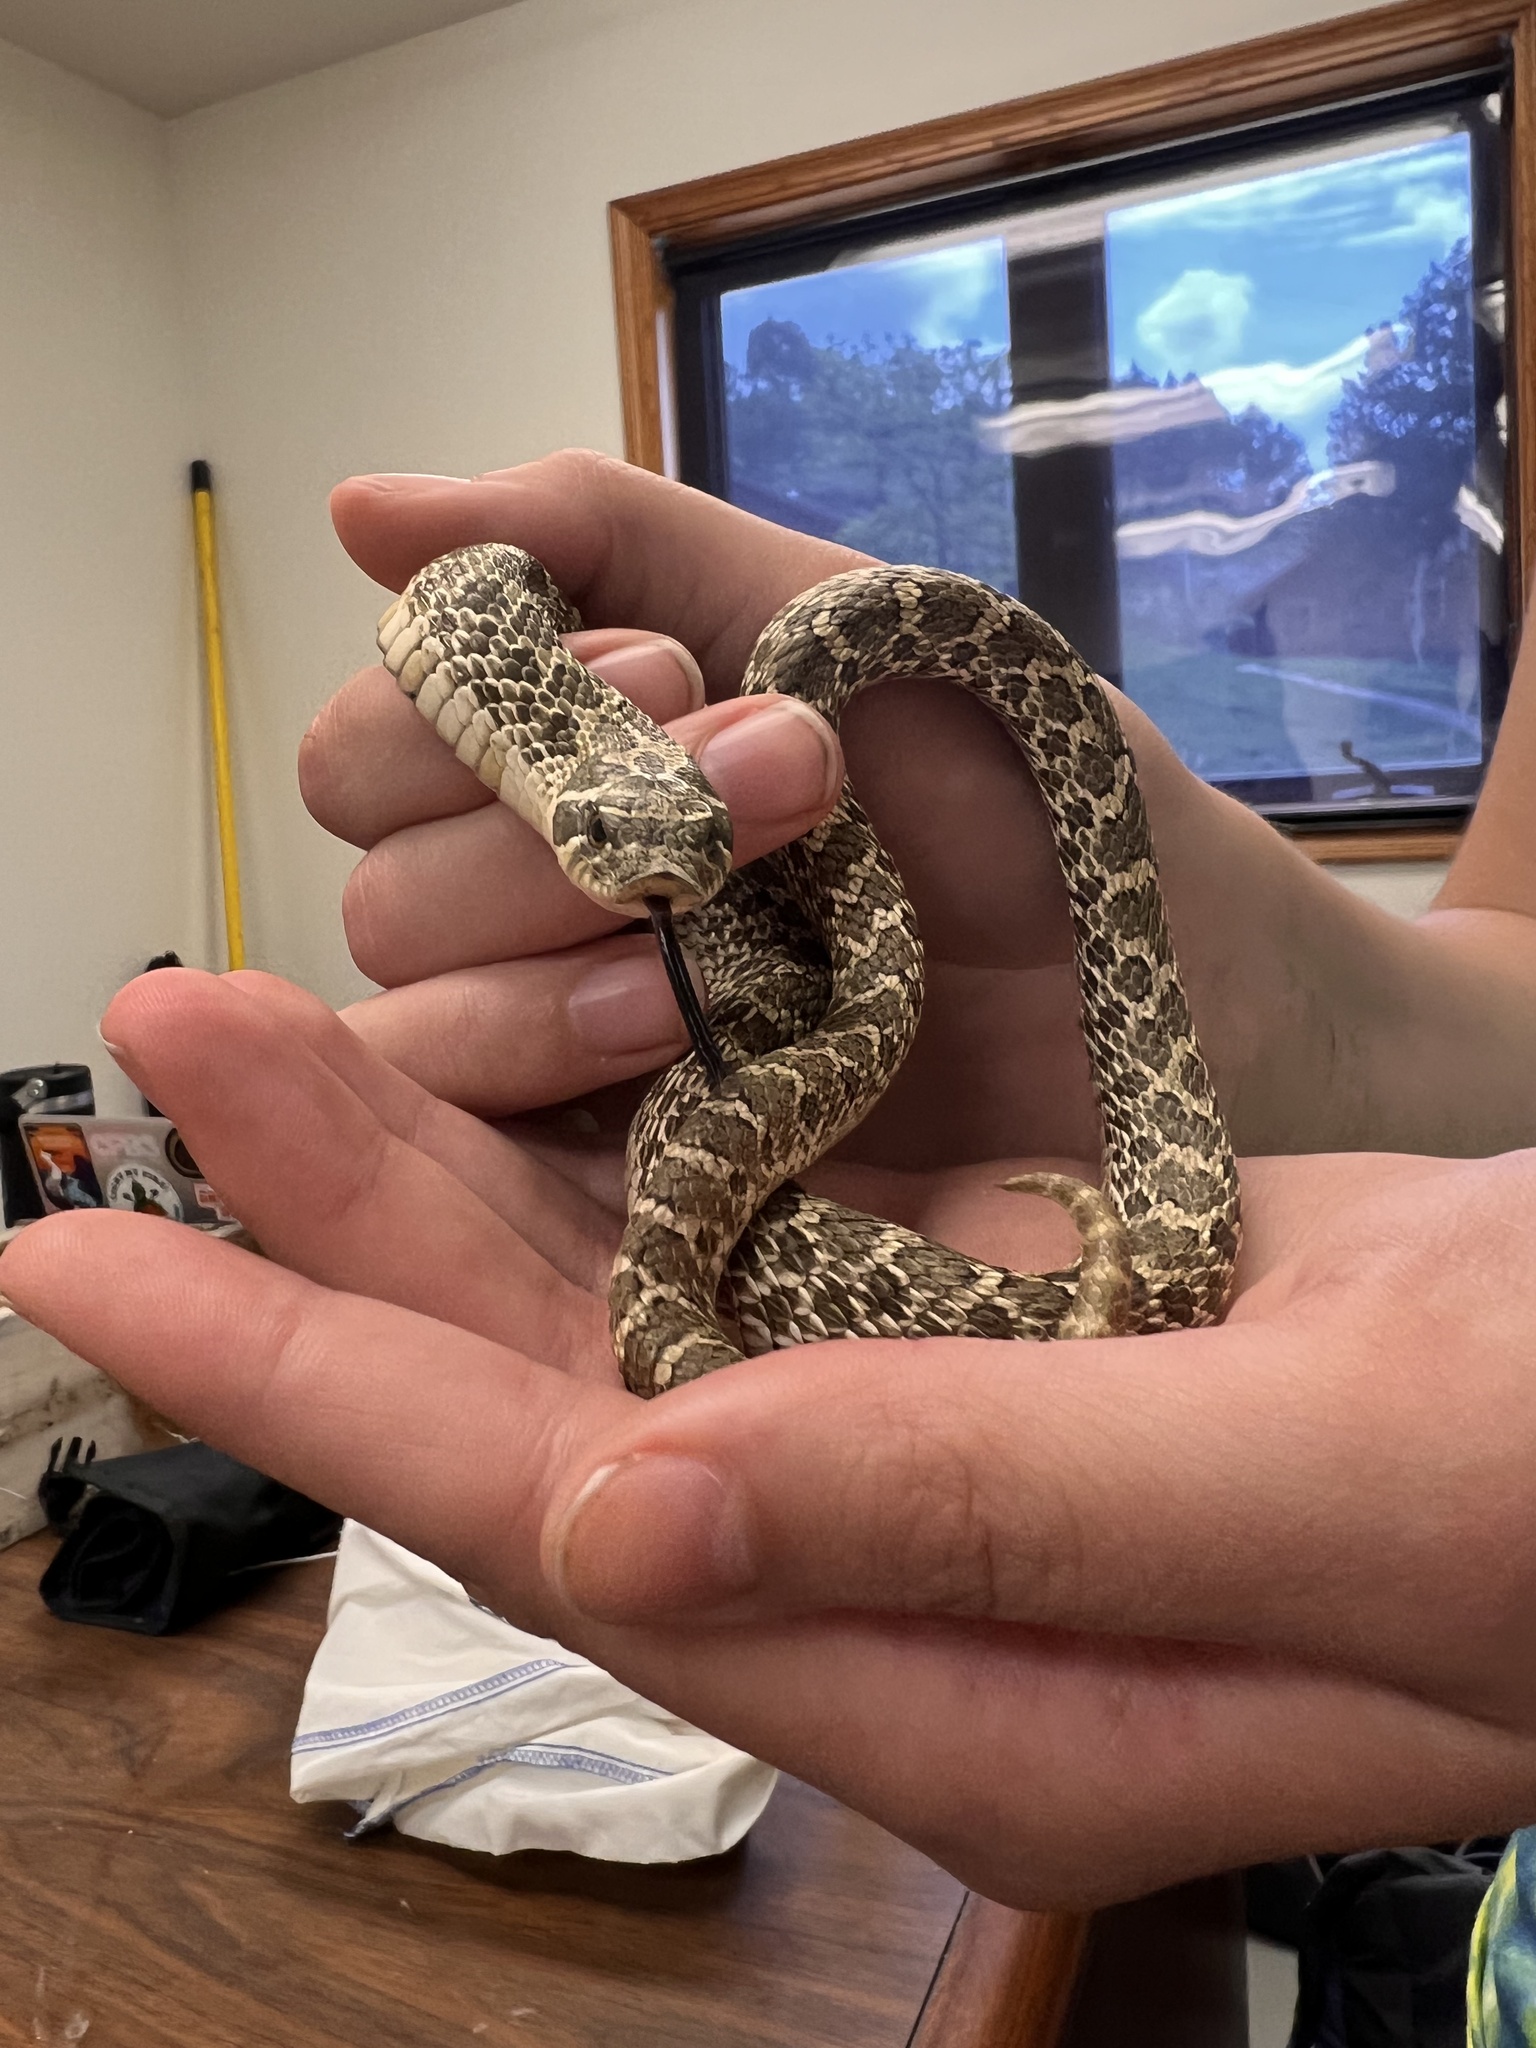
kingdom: Animalia
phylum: Chordata
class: Squamata
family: Colubridae
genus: Heterodon
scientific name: Heterodon nasicus
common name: Western hognose snake
